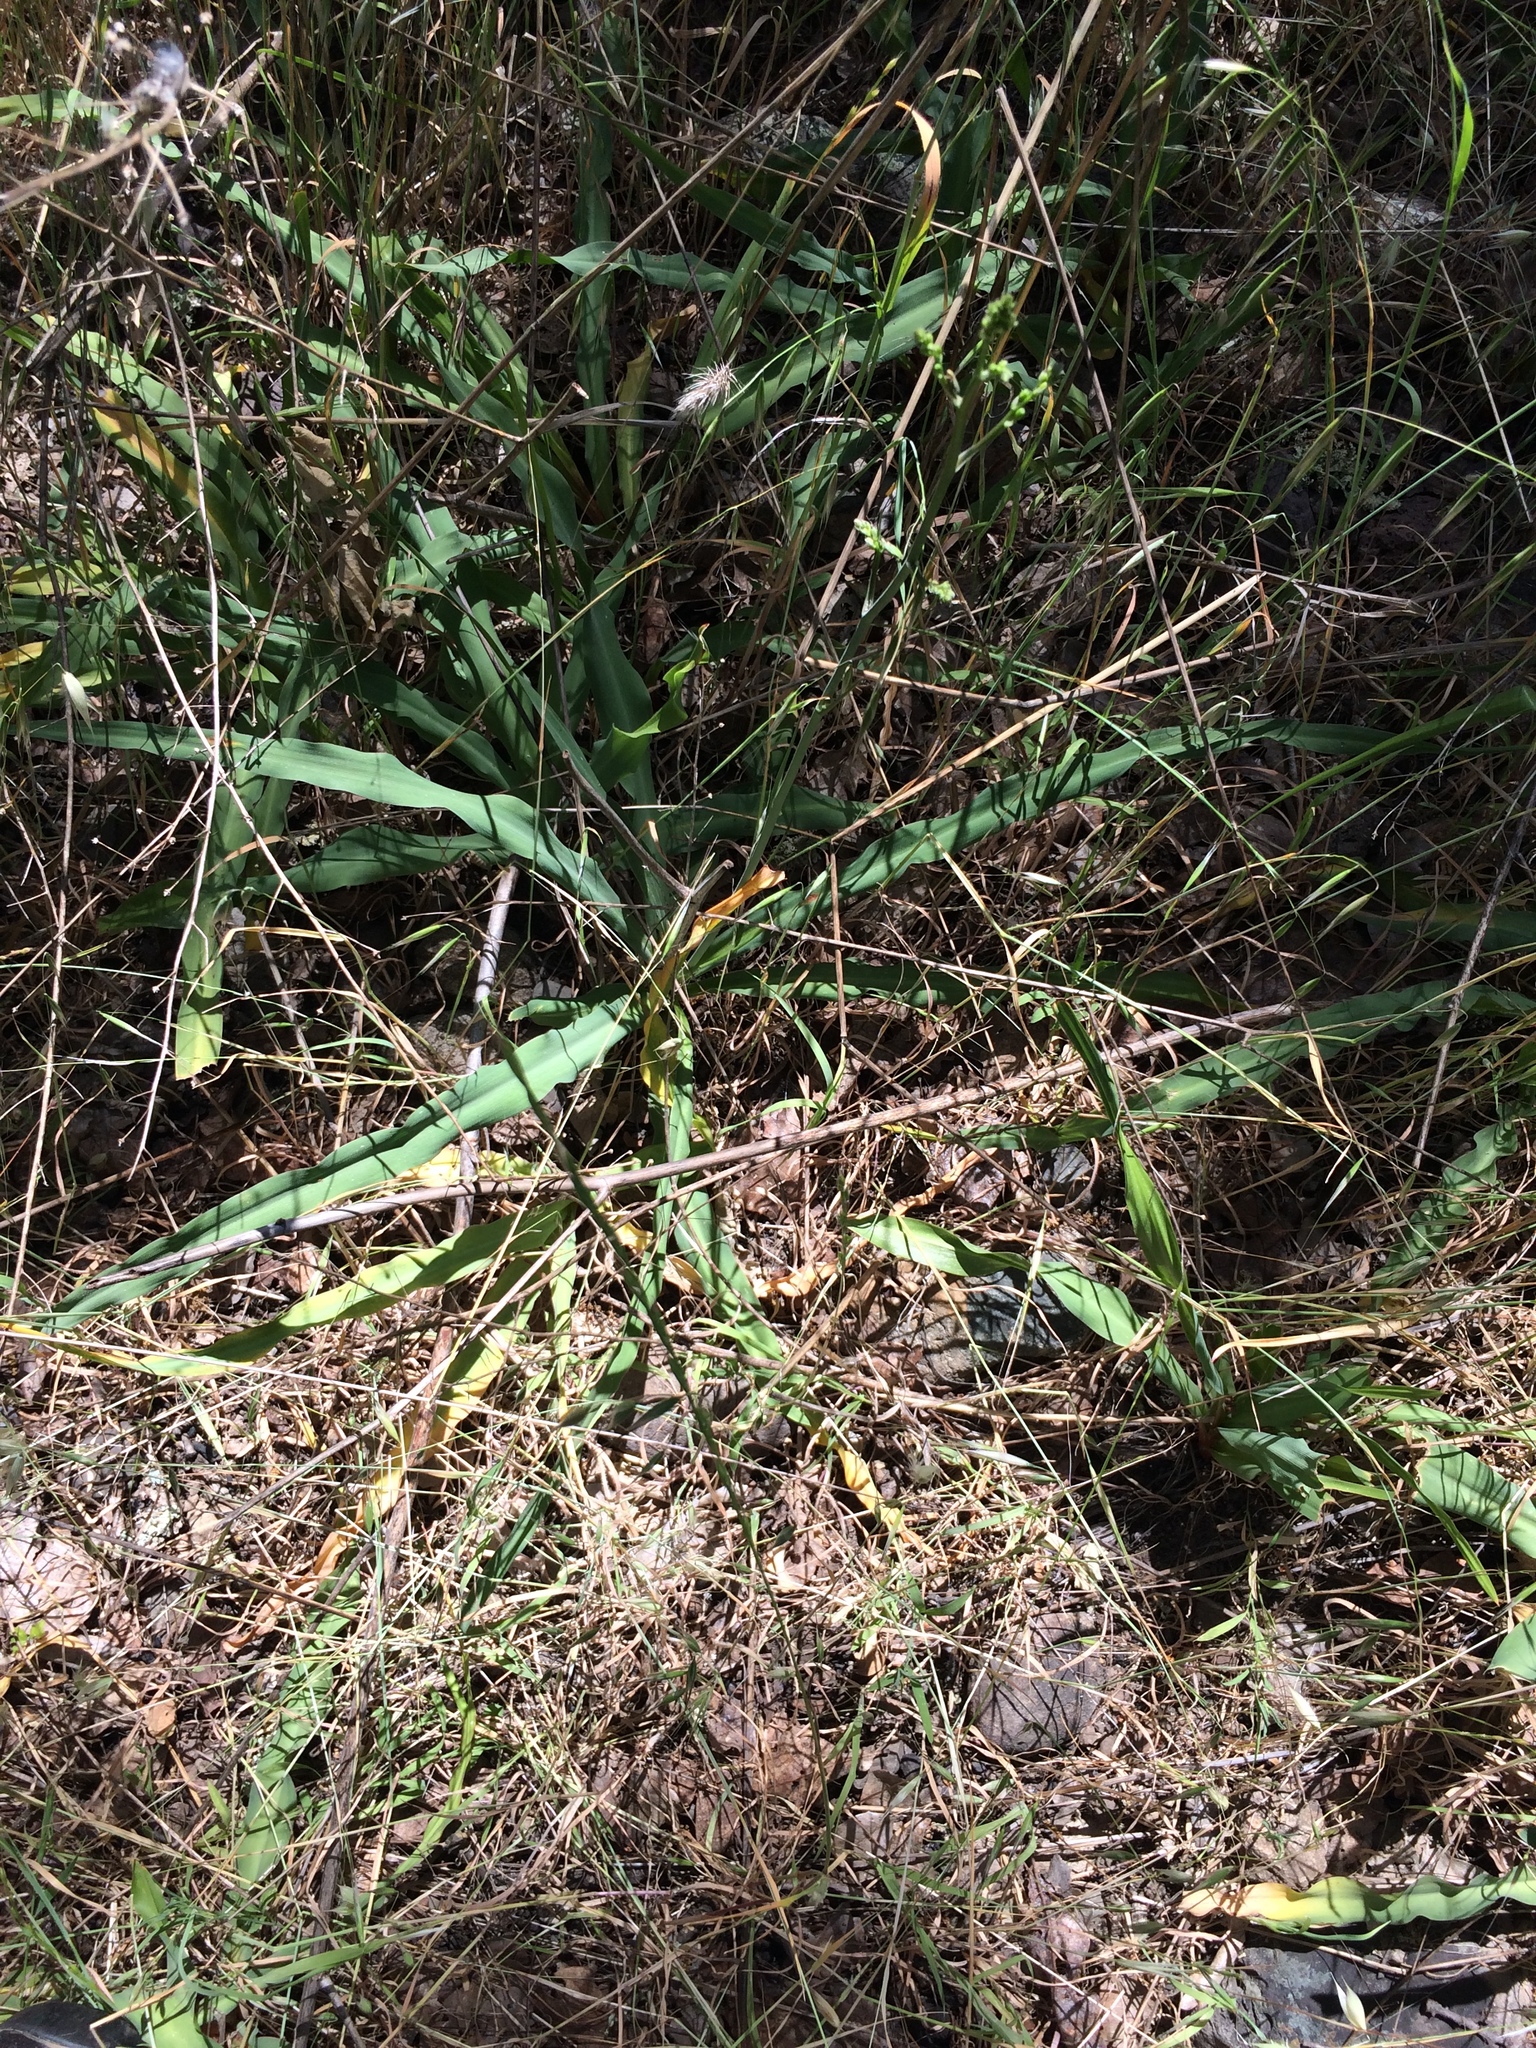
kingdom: Plantae
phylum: Tracheophyta
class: Liliopsida
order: Asparagales
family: Asparagaceae
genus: Chlorogalum
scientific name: Chlorogalum pomeridianum
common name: Amole
